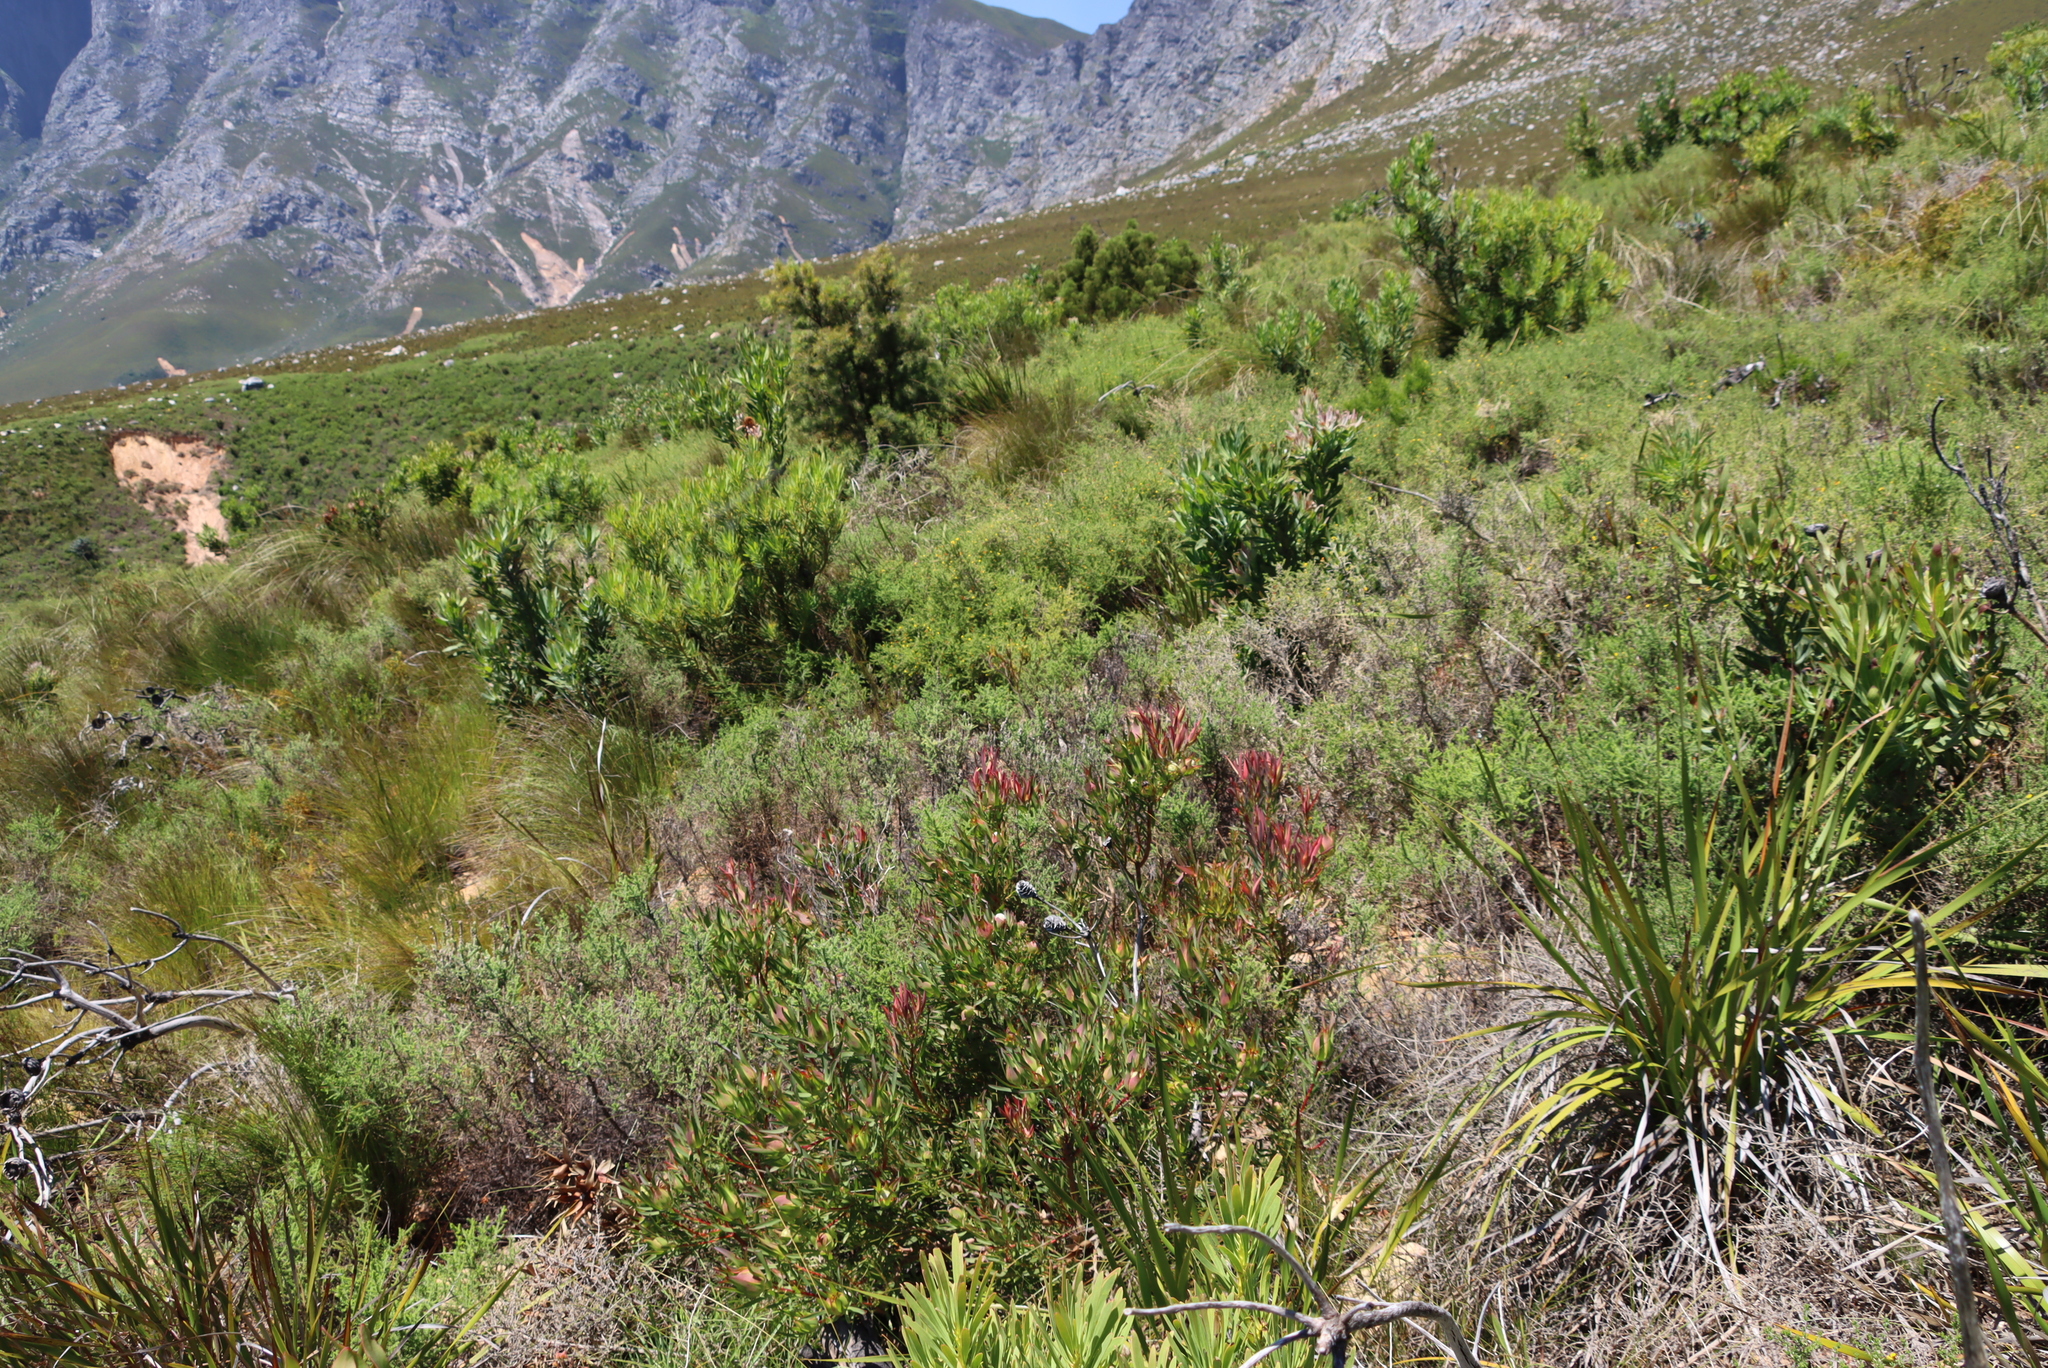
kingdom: Plantae
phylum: Tracheophyta
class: Magnoliopsida
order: Proteales
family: Proteaceae
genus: Leucadendron
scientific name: Leucadendron salignum
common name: Common sunshine conebush
